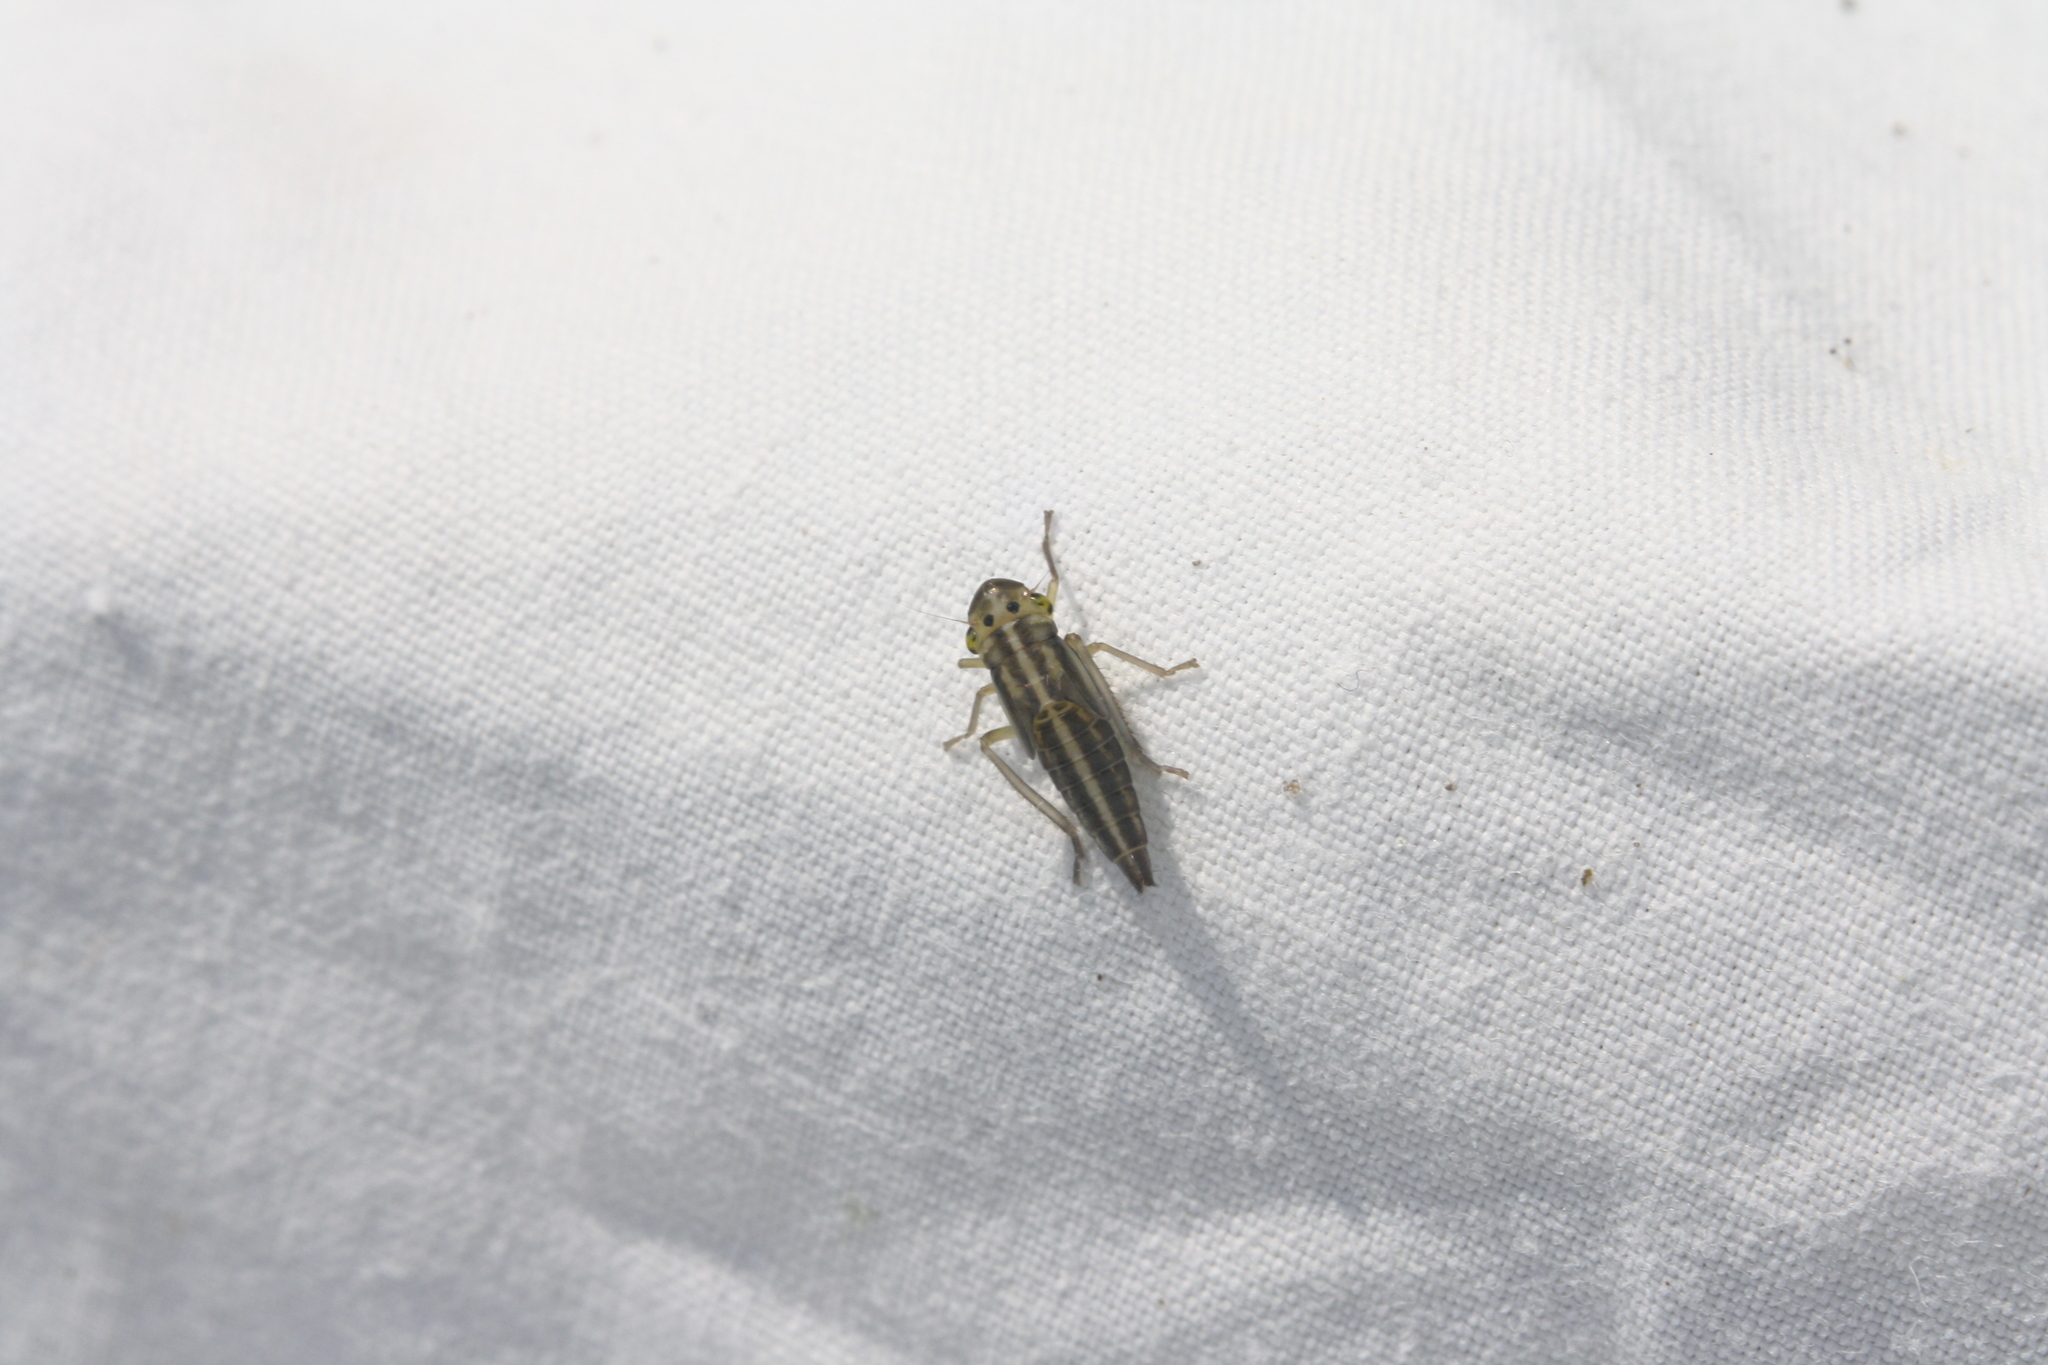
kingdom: Animalia
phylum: Arthropoda
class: Insecta
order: Hemiptera
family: Cicadellidae
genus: Cicadella
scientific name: Cicadella viridis
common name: Leafhopper
